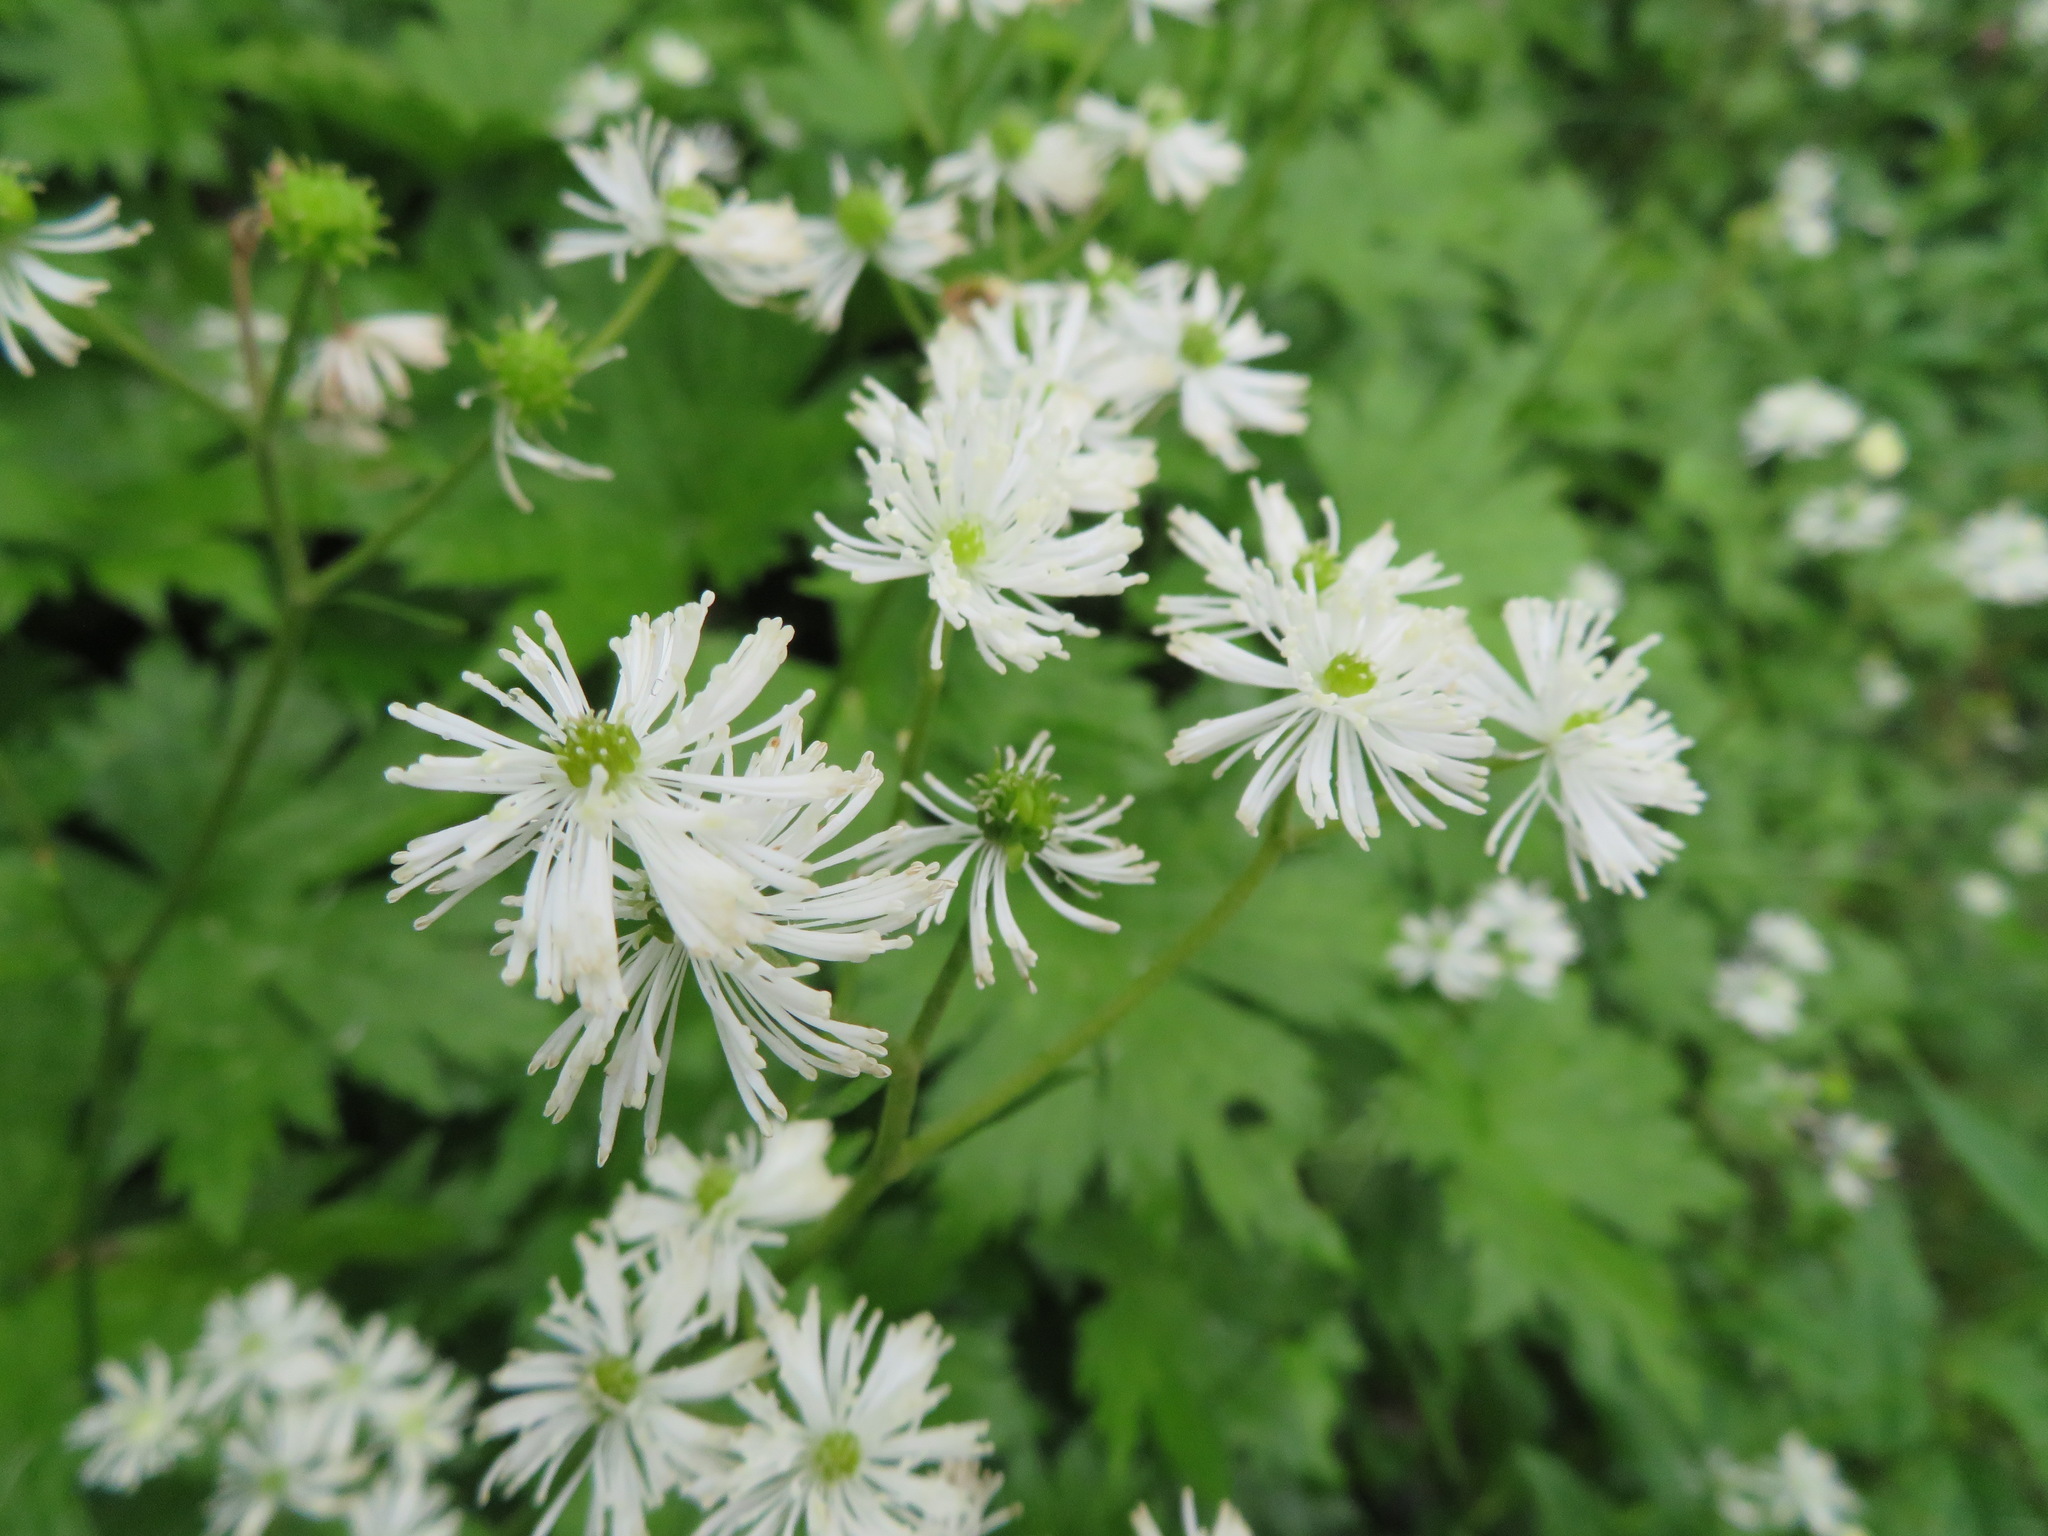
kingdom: Plantae
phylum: Tracheophyta
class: Magnoliopsida
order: Ranunculales
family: Ranunculaceae
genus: Trautvetteria
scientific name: Trautvetteria carolinensis
